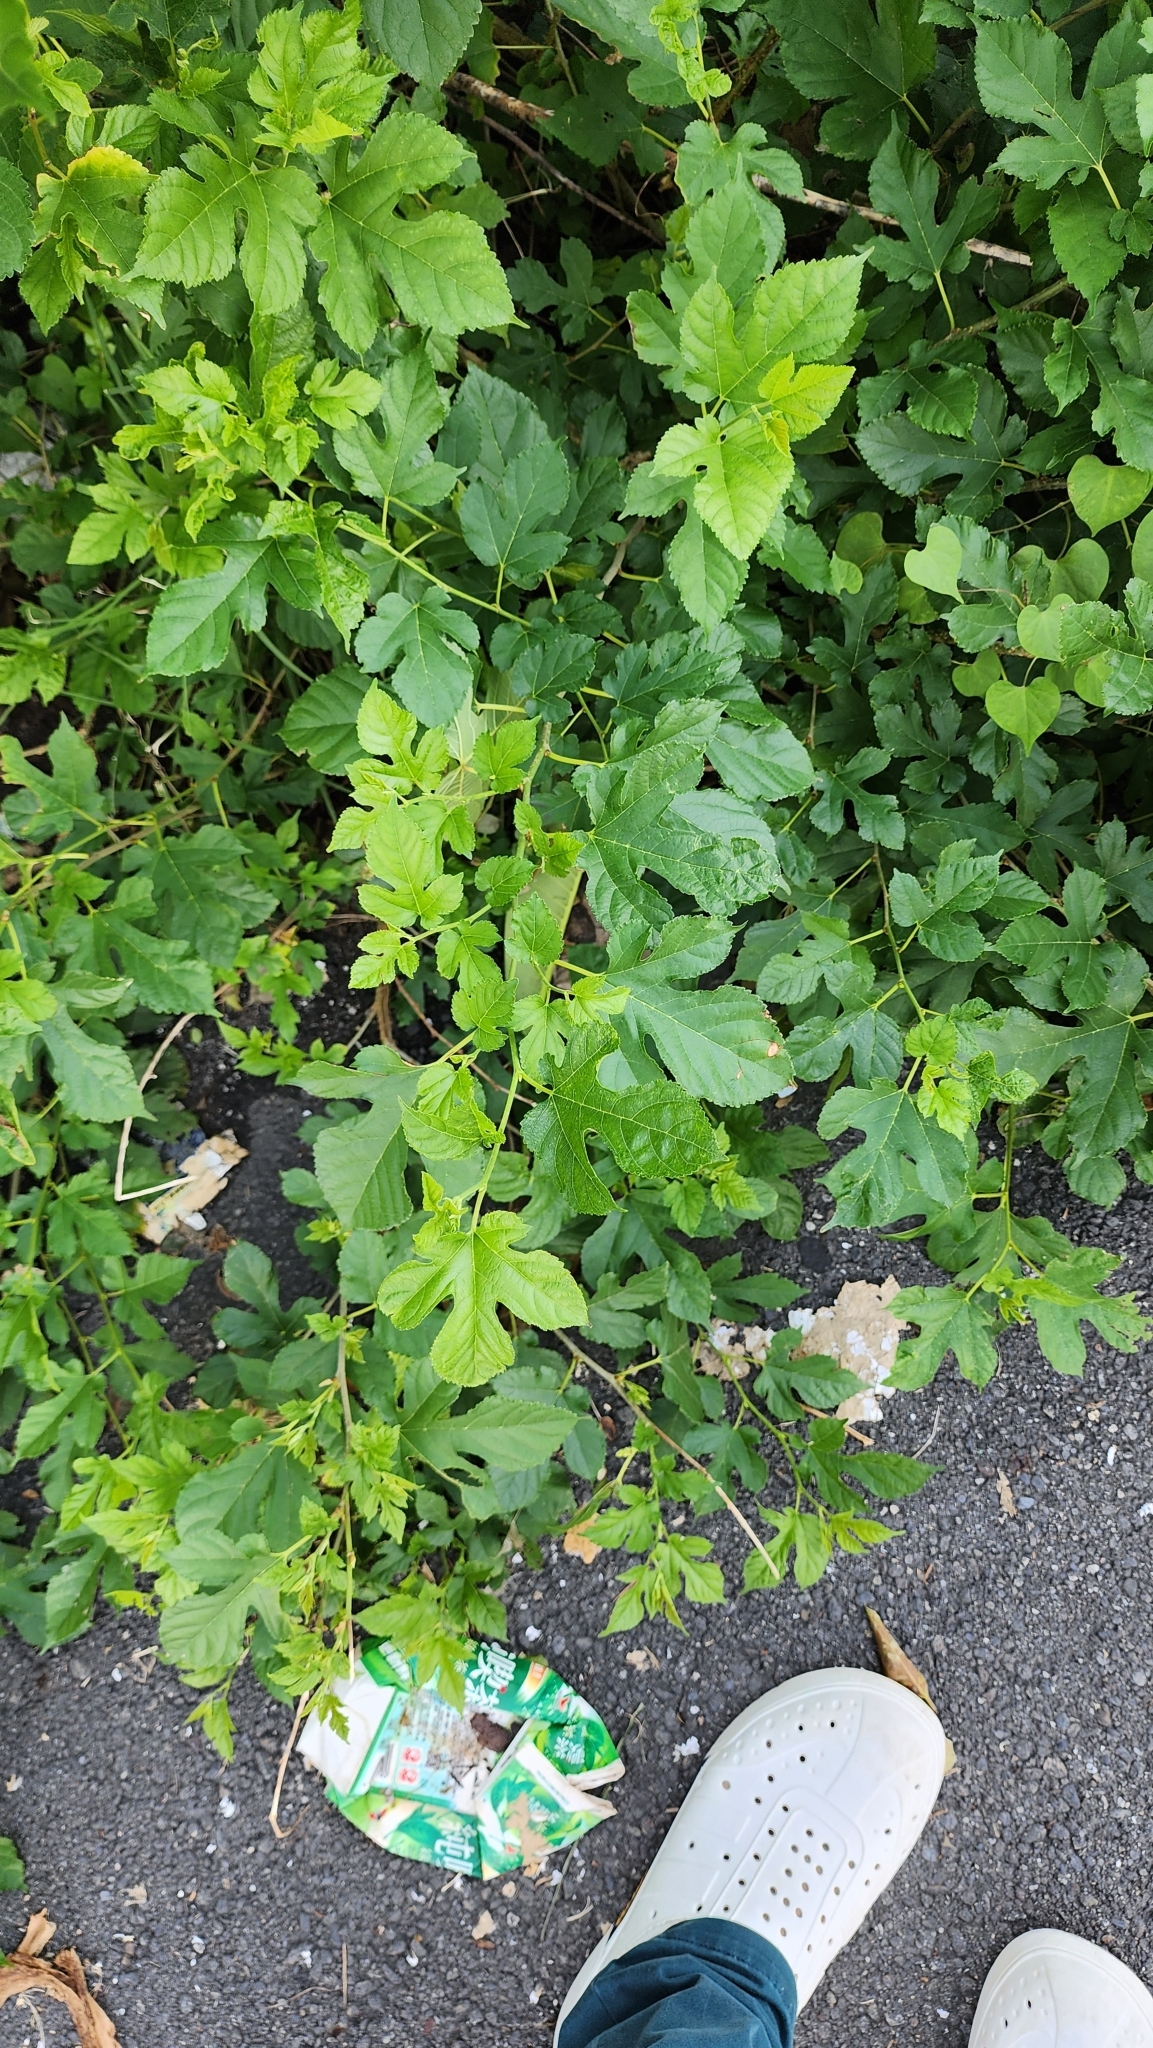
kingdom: Plantae
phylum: Tracheophyta
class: Magnoliopsida
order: Rosales
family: Moraceae
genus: Morus
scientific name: Morus indica
